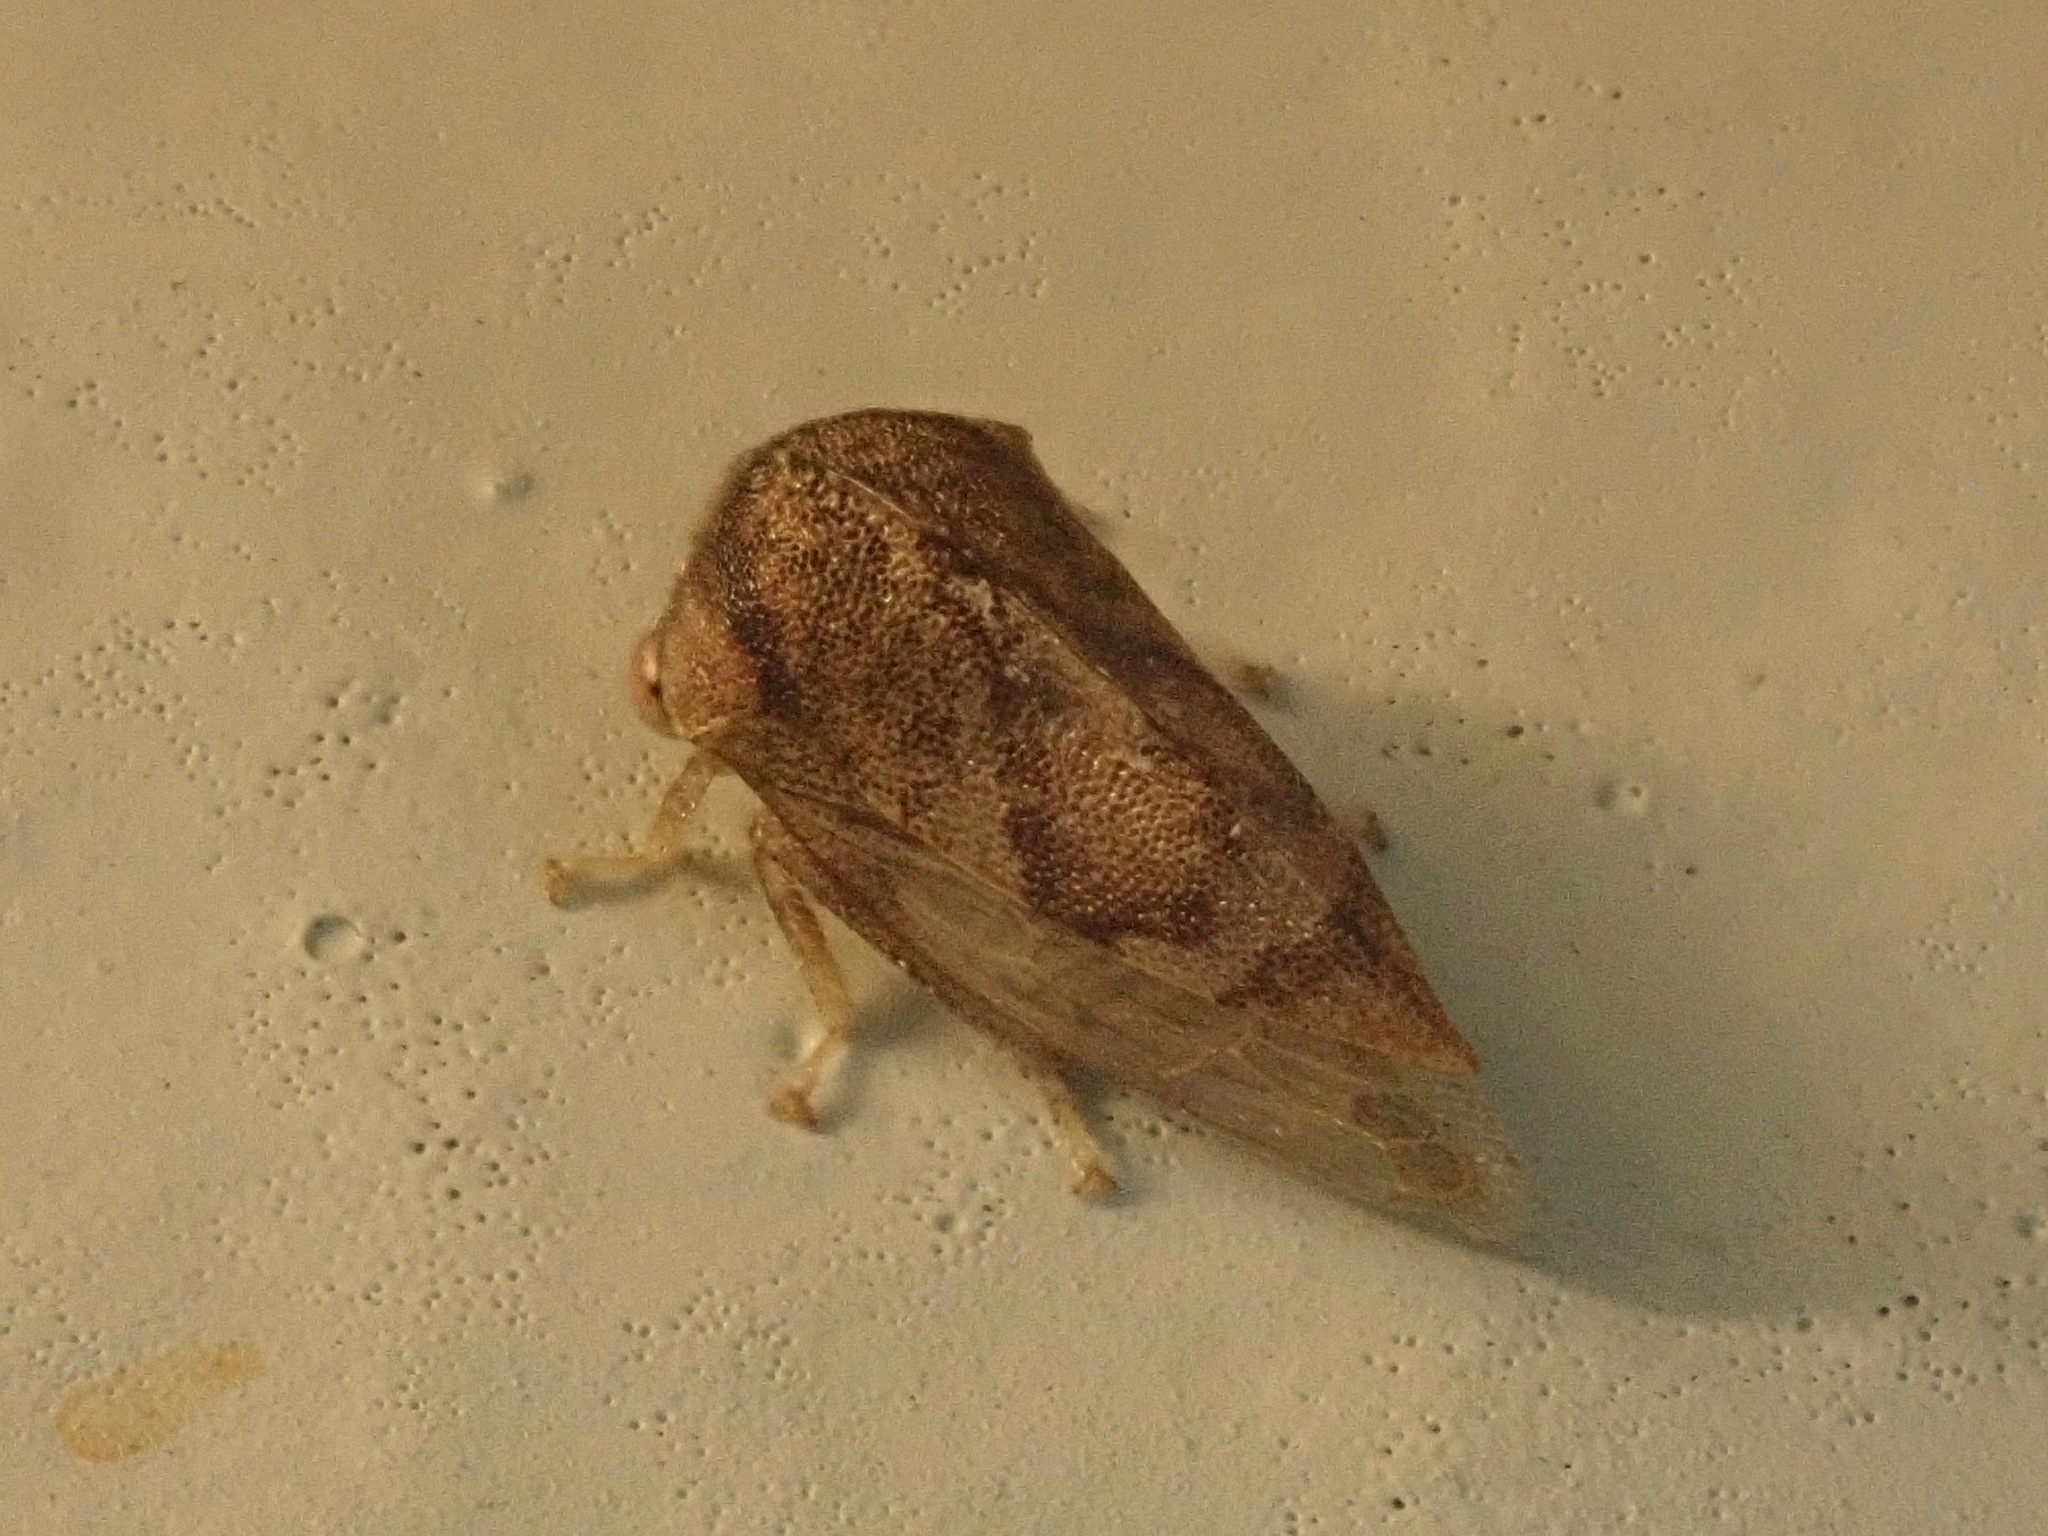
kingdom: Animalia
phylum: Arthropoda
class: Insecta
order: Hemiptera
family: Membracidae
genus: Cyrtolobus
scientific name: Cyrtolobus rufulus
